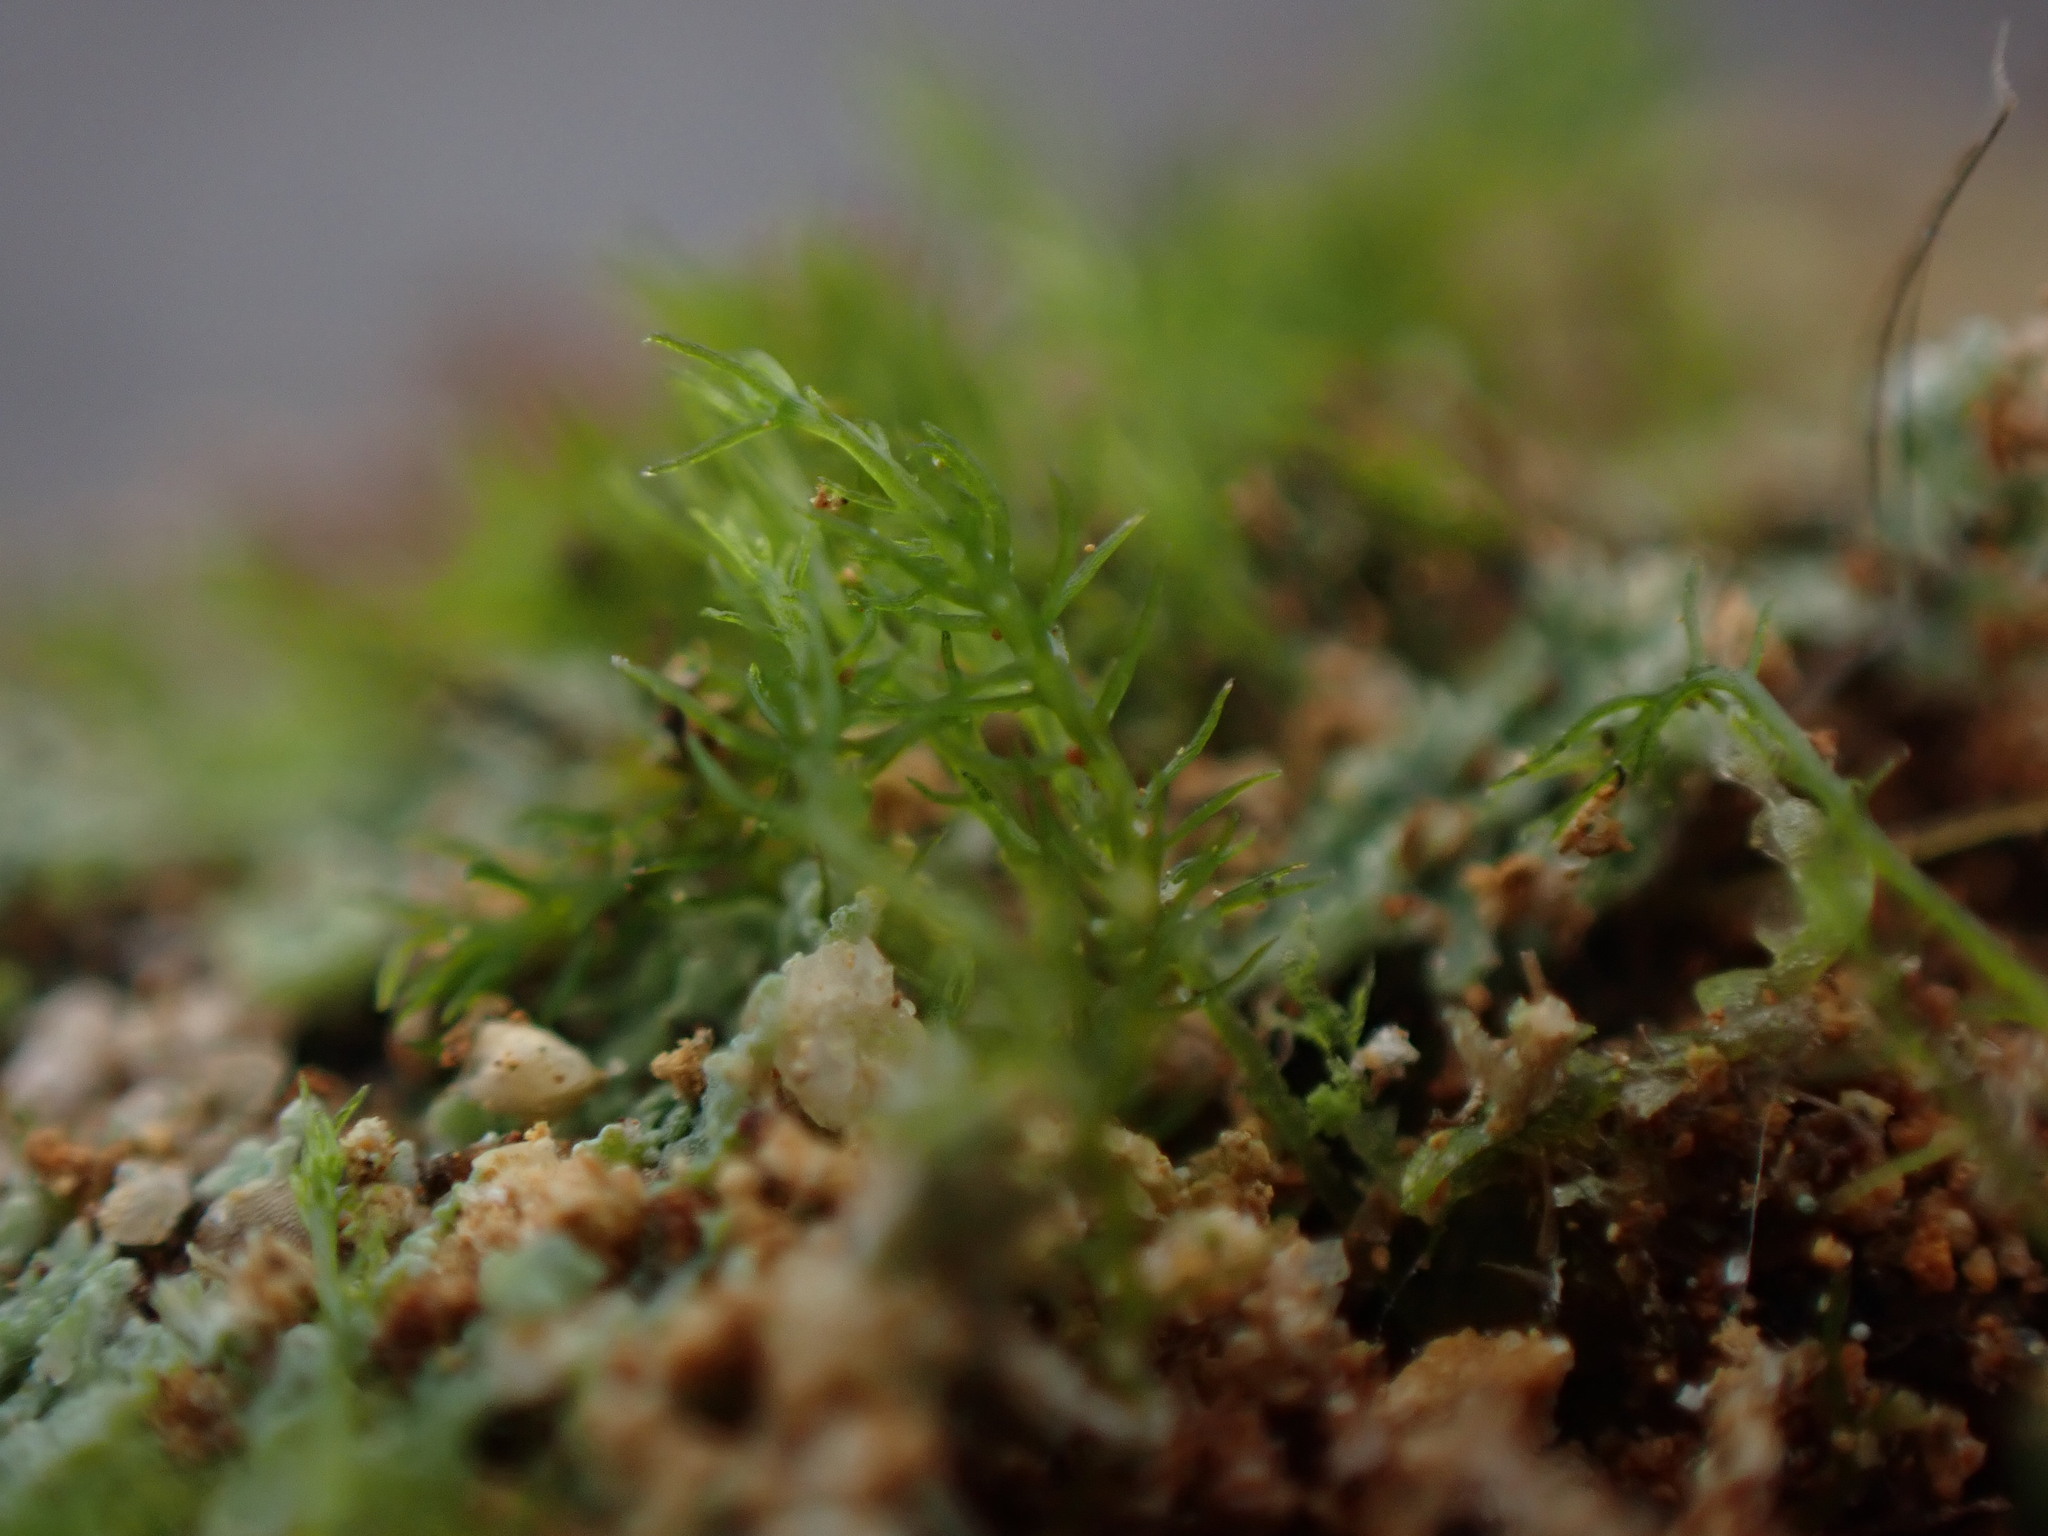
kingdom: Plantae
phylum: Bryophyta
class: Takakiopsida
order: Takakiales
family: Takakiaceae
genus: Takakia
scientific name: Takakia lepidozioides
